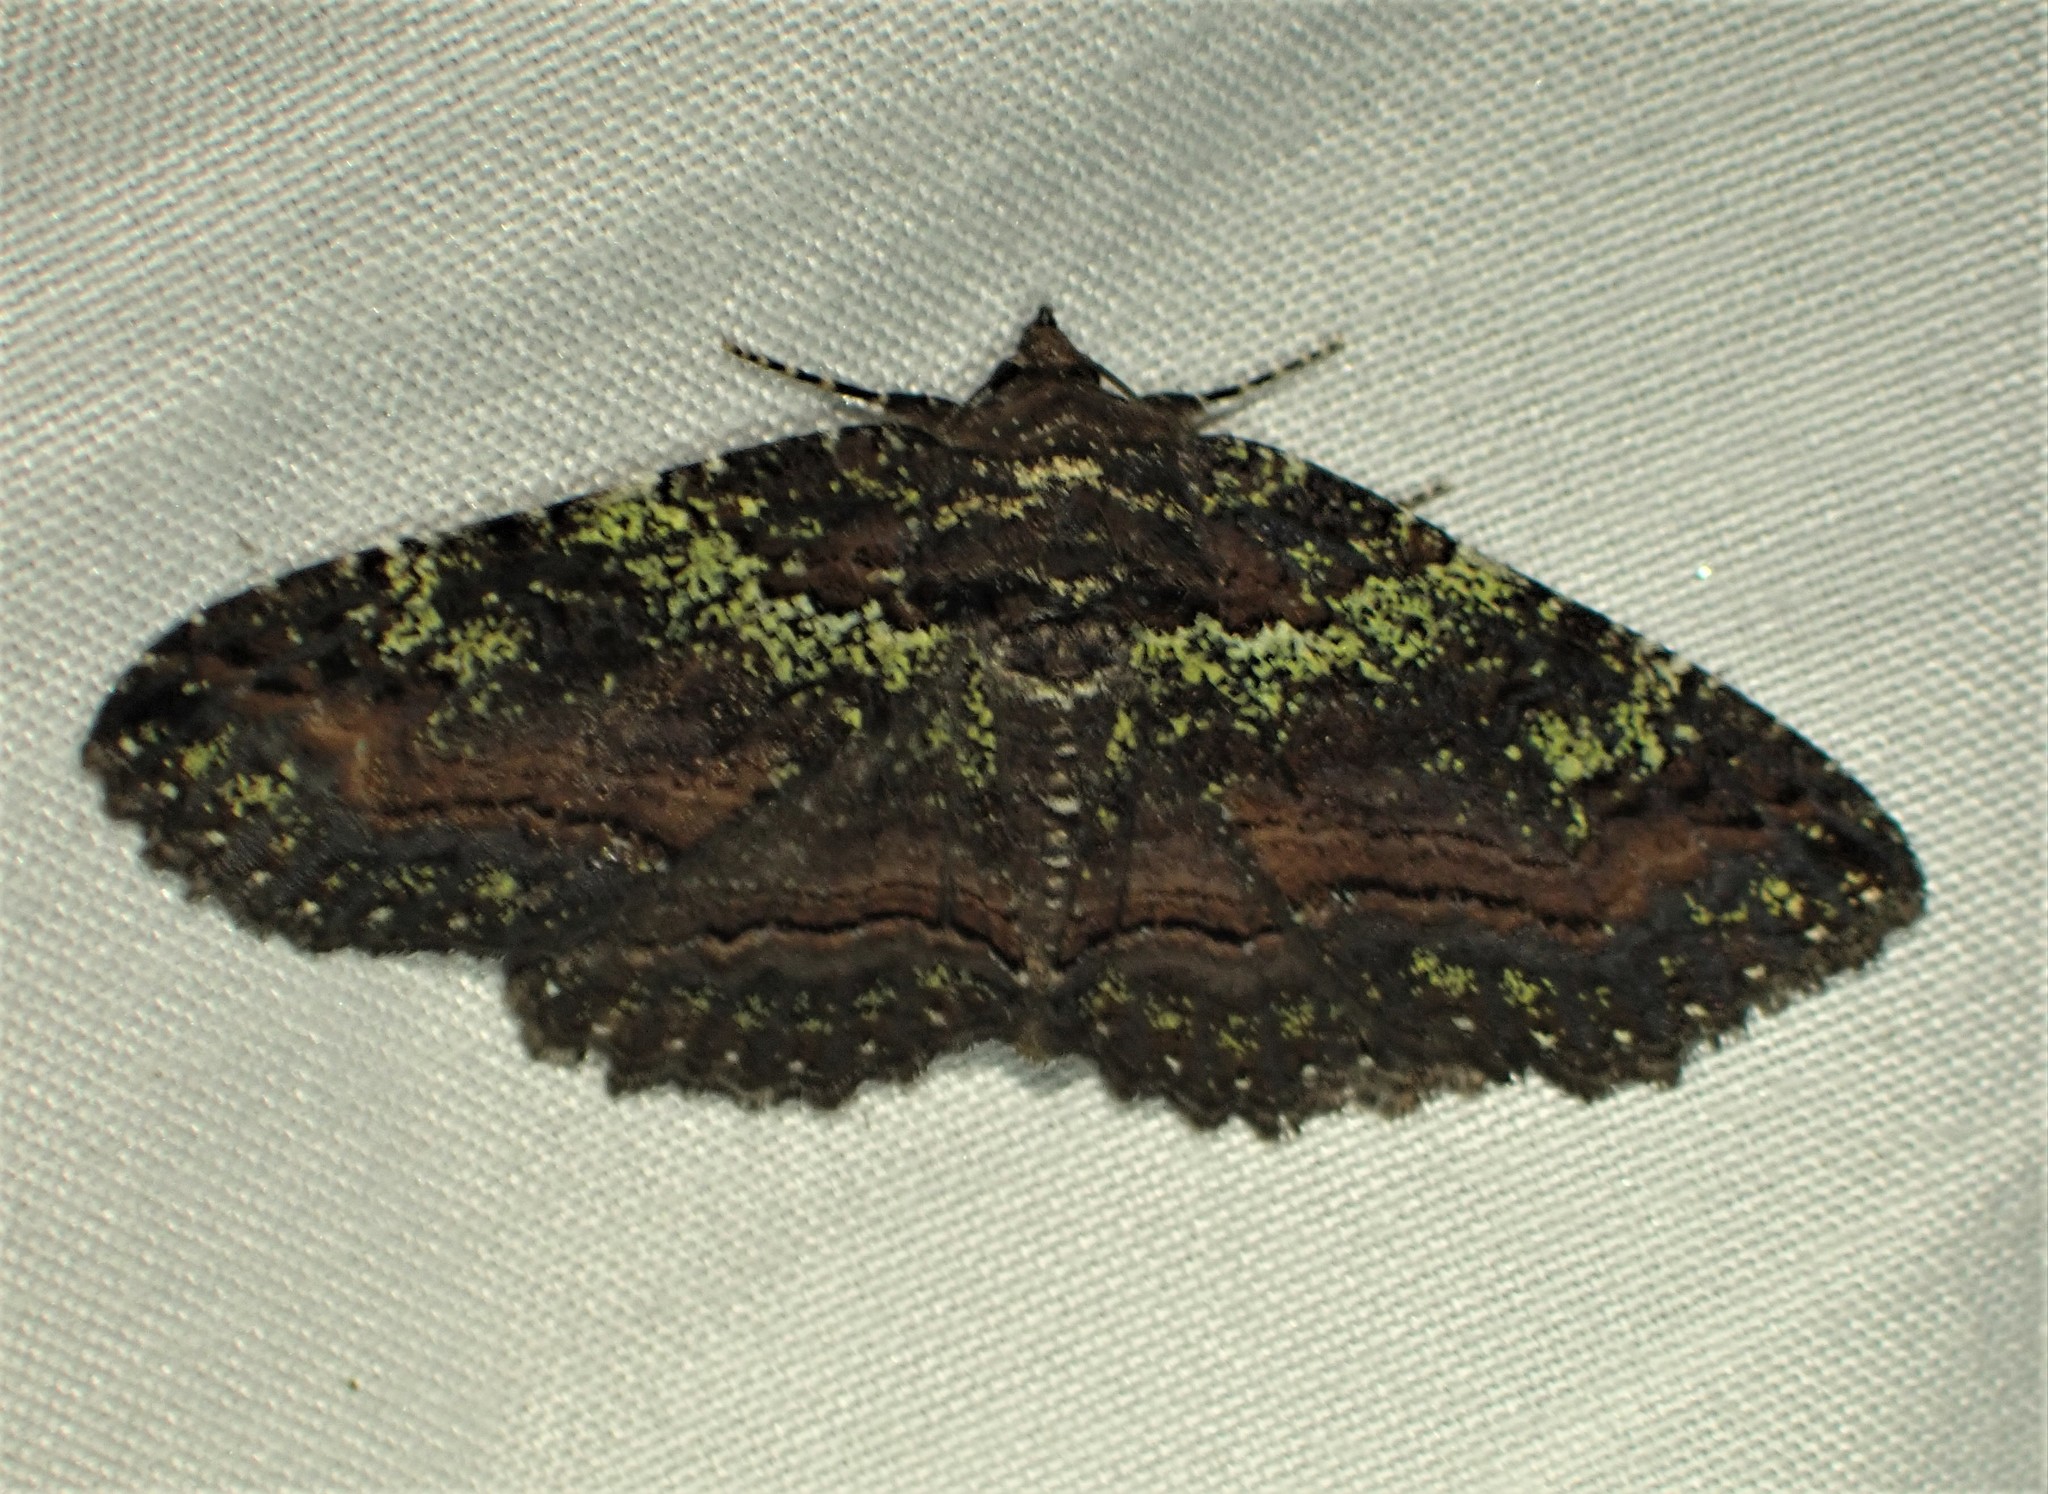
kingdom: Animalia
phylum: Arthropoda
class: Insecta
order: Lepidoptera
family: Erebidae
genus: Zale
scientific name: Zale aeruginosa
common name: Green-dusted zale moth
